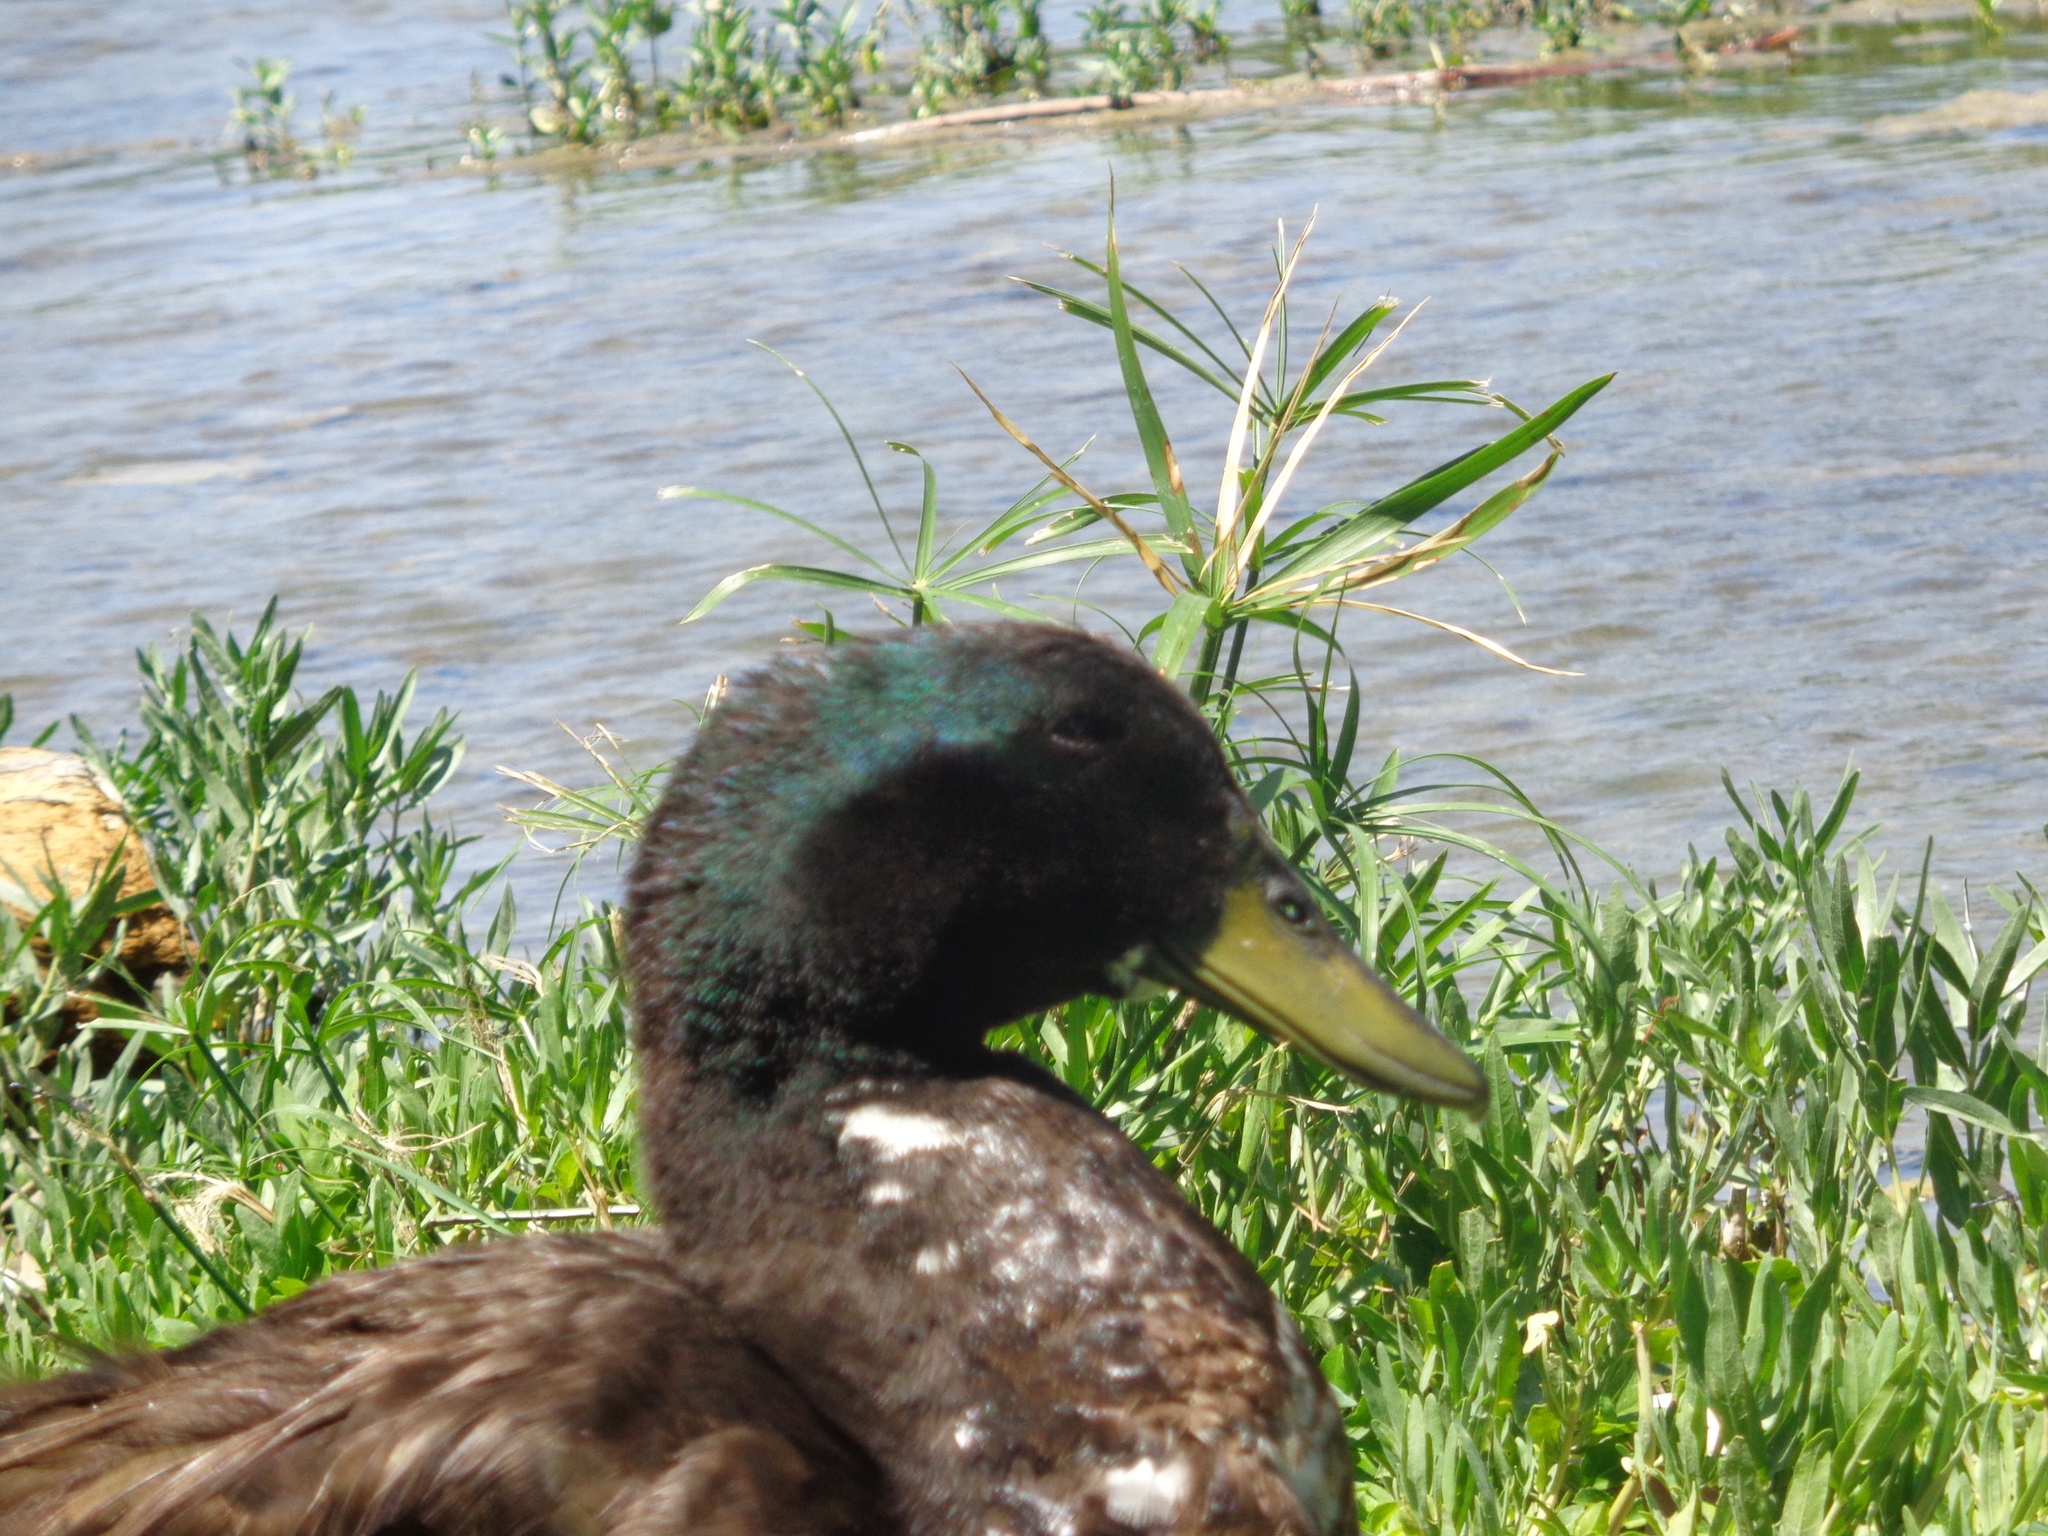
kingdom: Animalia
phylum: Chordata
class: Aves
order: Anseriformes
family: Anatidae
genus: Anas
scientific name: Anas platyrhynchos
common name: Mallard
